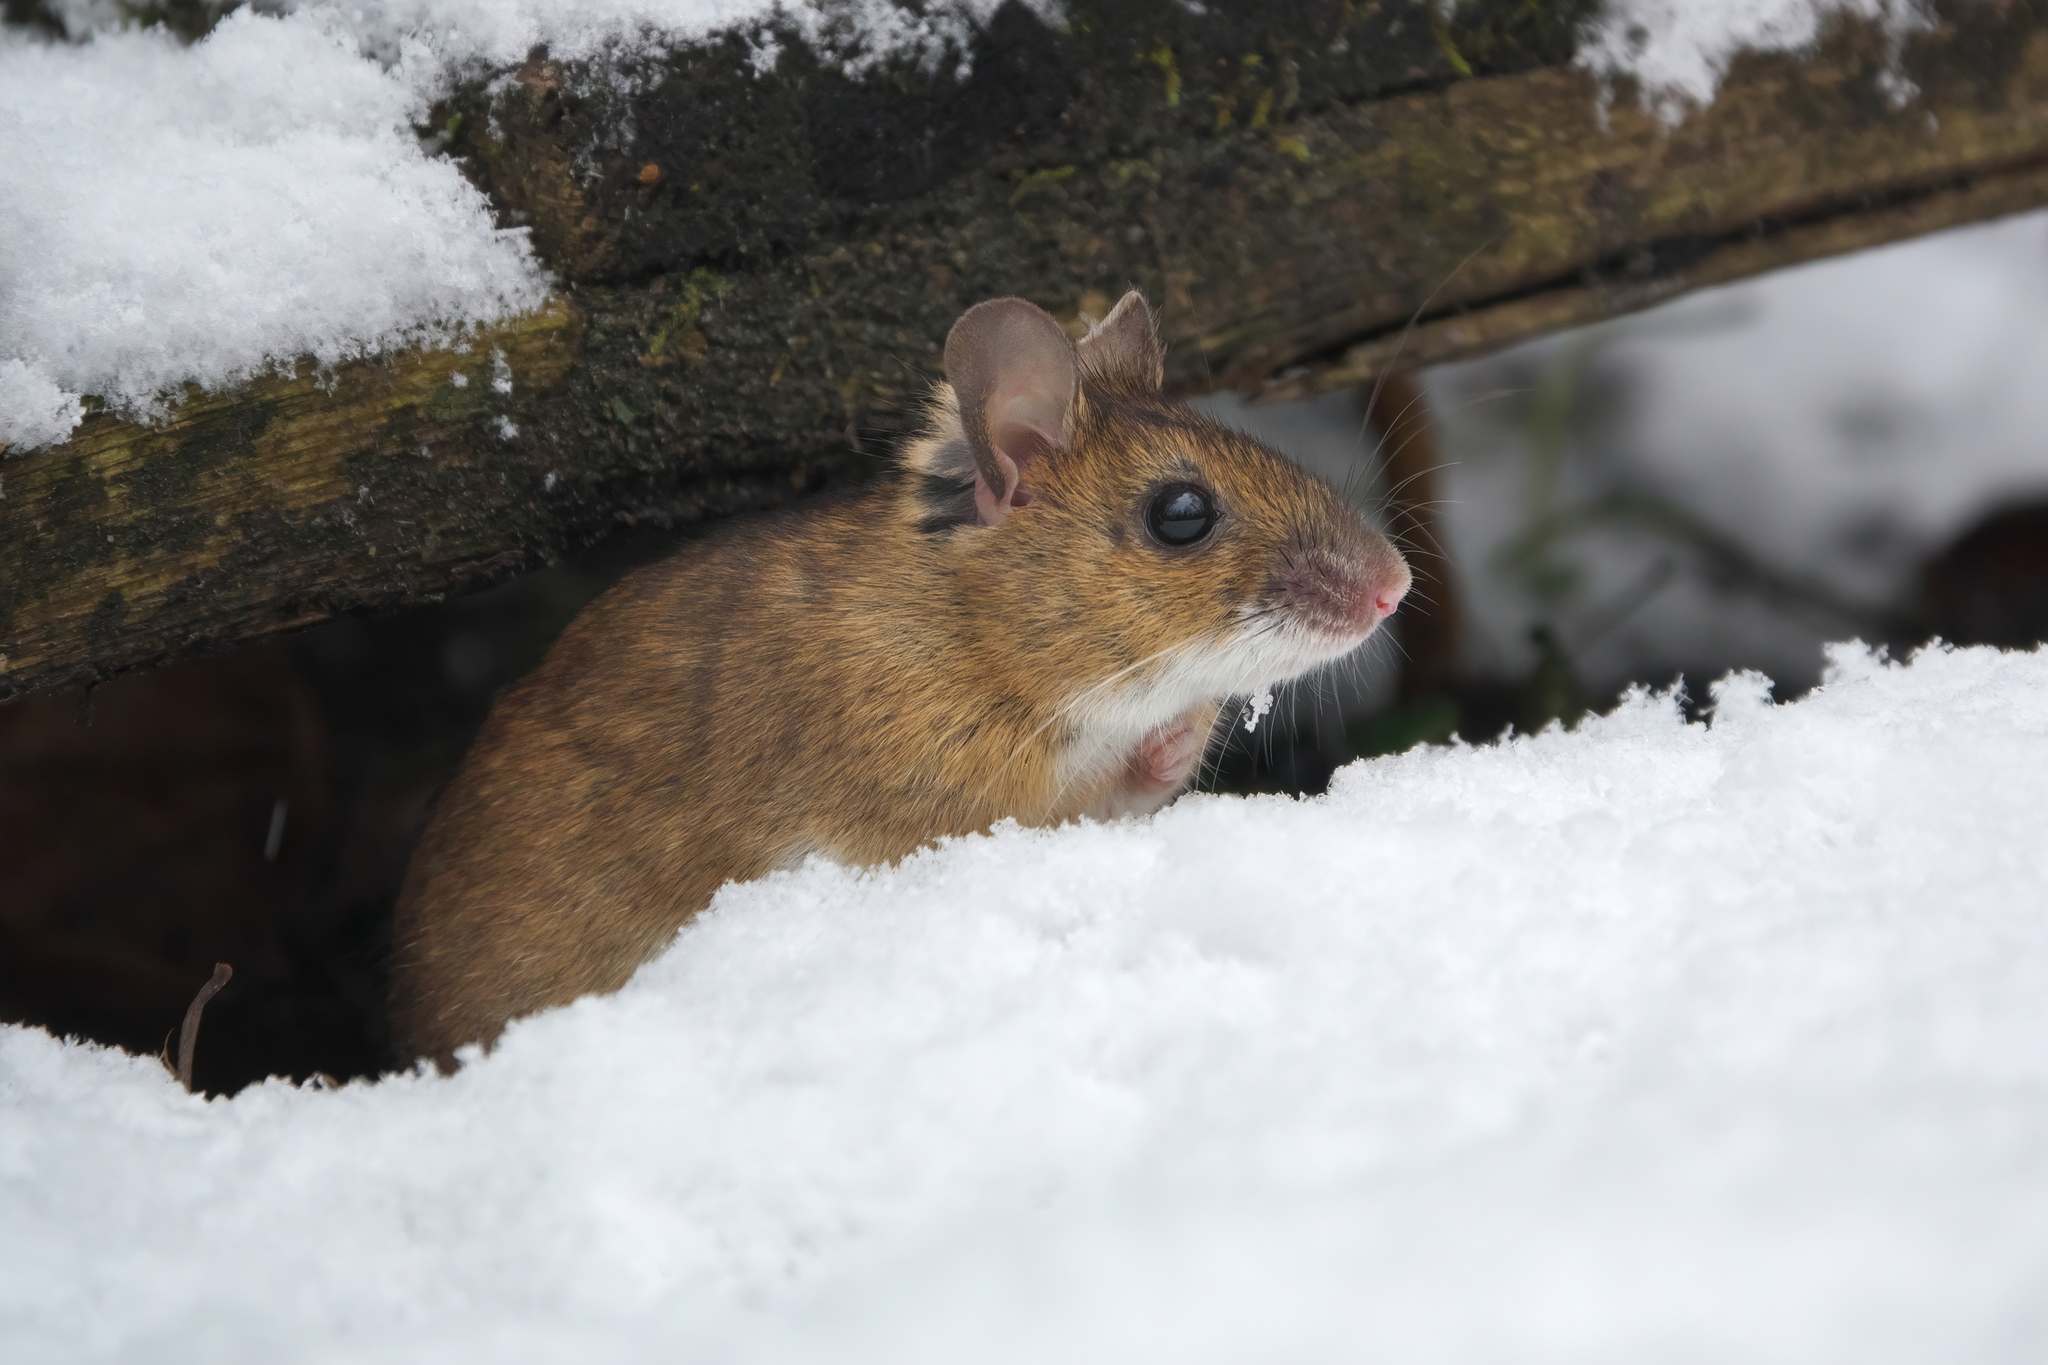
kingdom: Animalia
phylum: Chordata
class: Mammalia
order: Rodentia
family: Muridae
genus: Apodemus
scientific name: Apodemus flavicollis
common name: Yellow-necked field mouse
